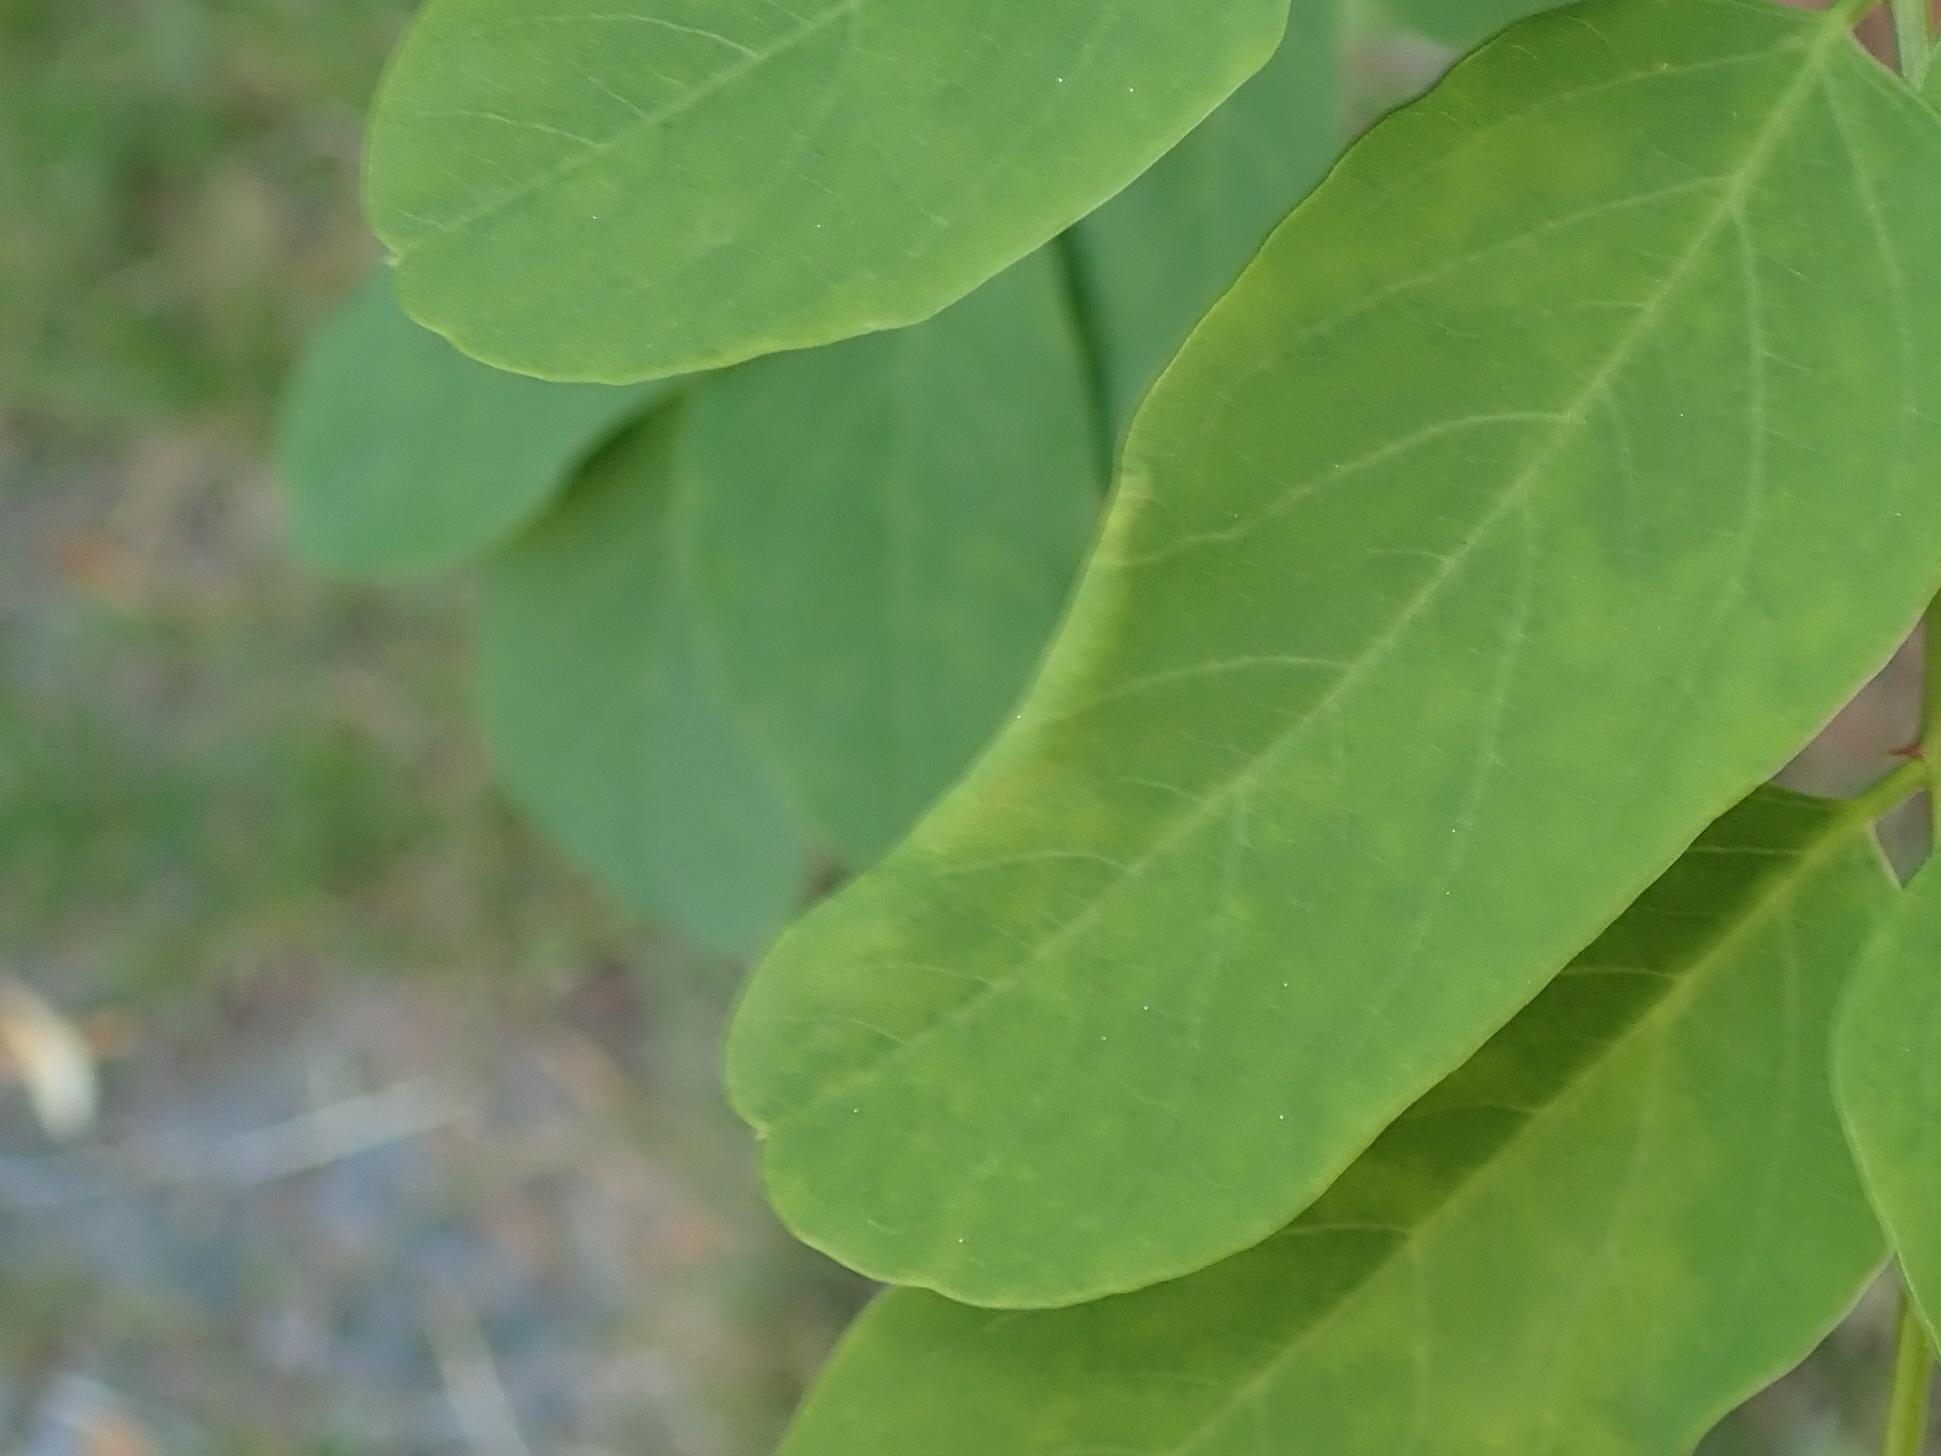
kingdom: Animalia
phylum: Arthropoda
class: Insecta
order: Diptera
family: Cecidomyiidae
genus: Obolodiplosis
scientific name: Obolodiplosis robiniae
